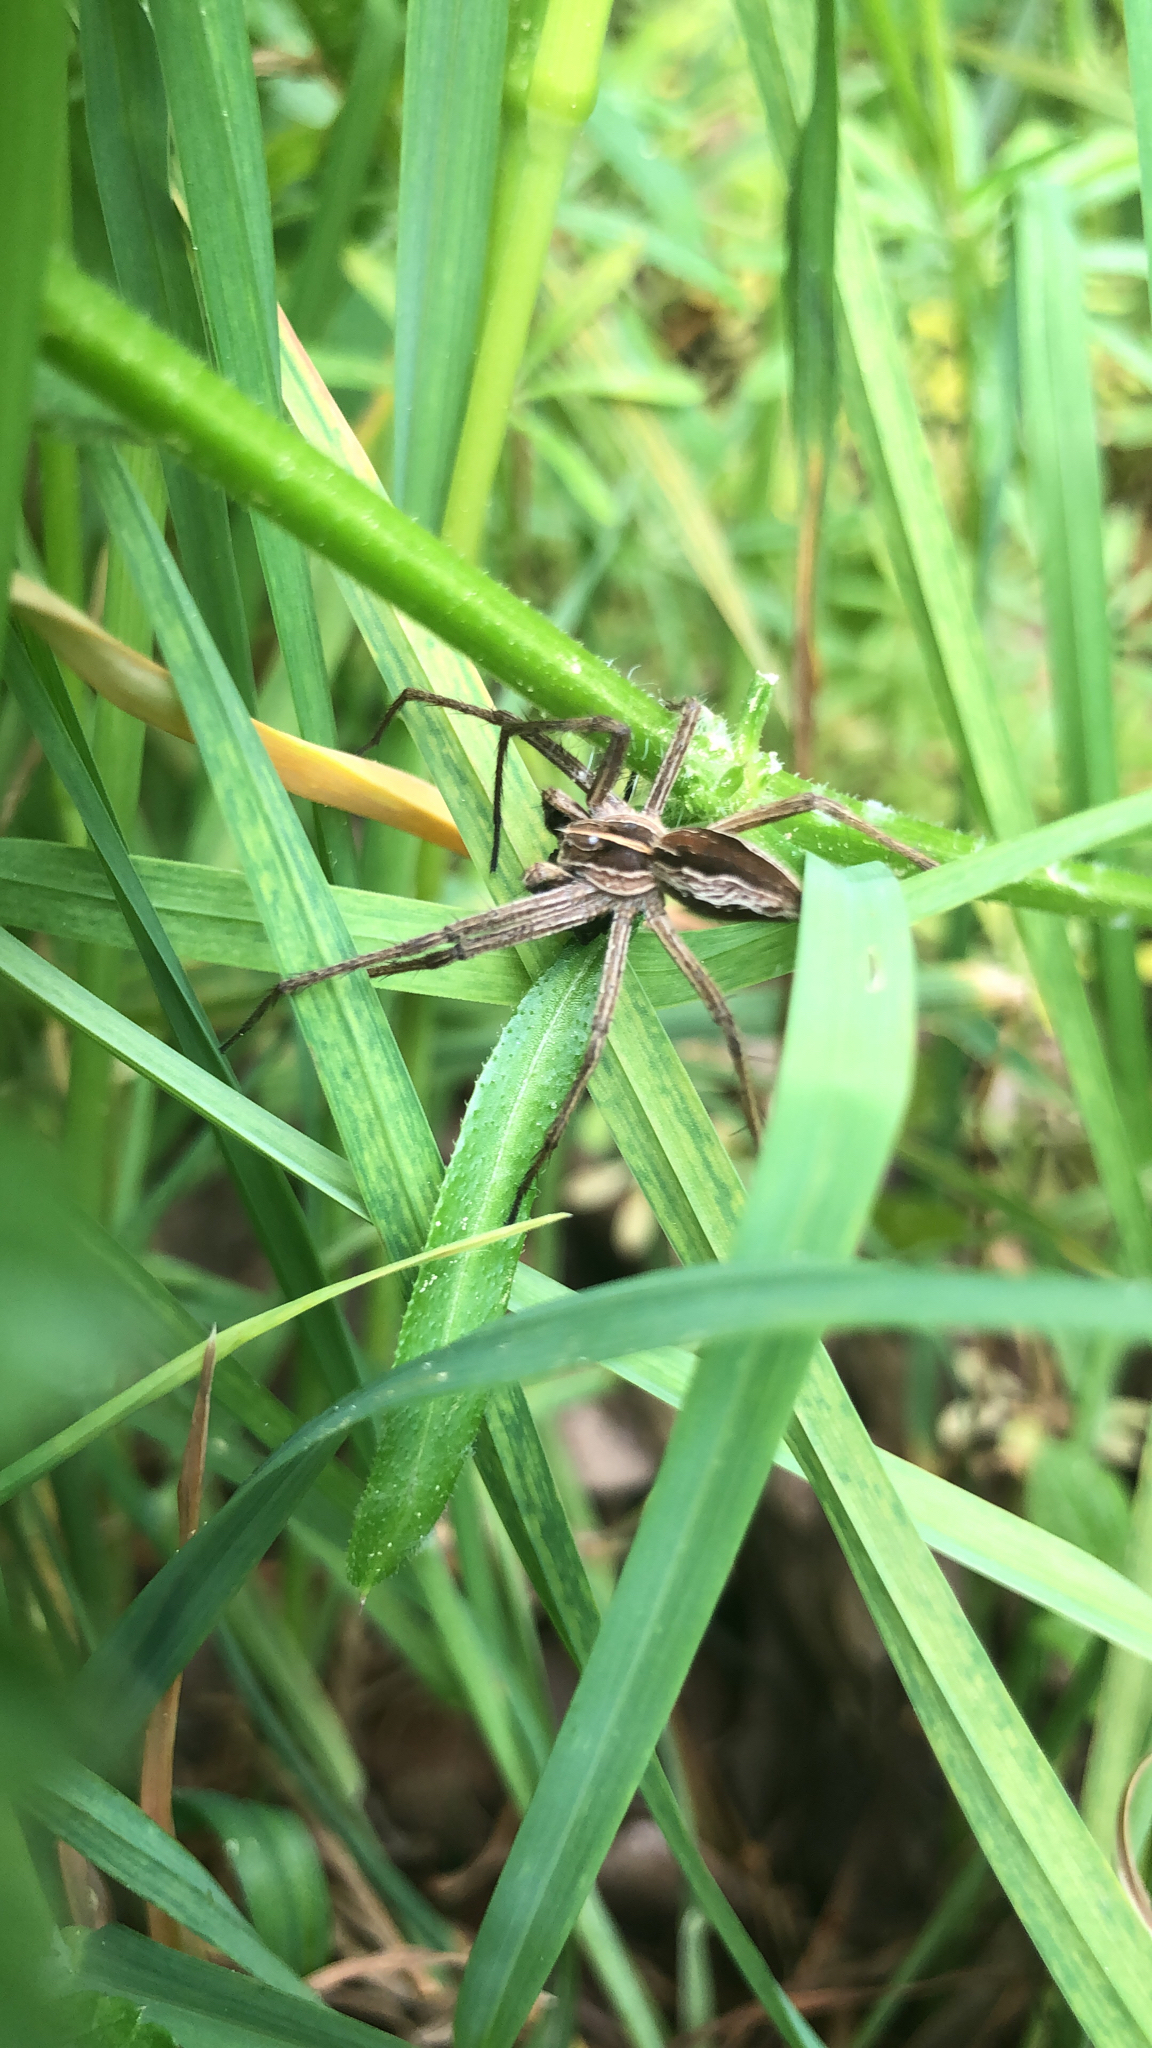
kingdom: Animalia
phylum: Arthropoda
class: Arachnida
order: Araneae
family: Pisauridae
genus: Pisaura
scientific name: Pisaura mirabilis
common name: Tent spider
